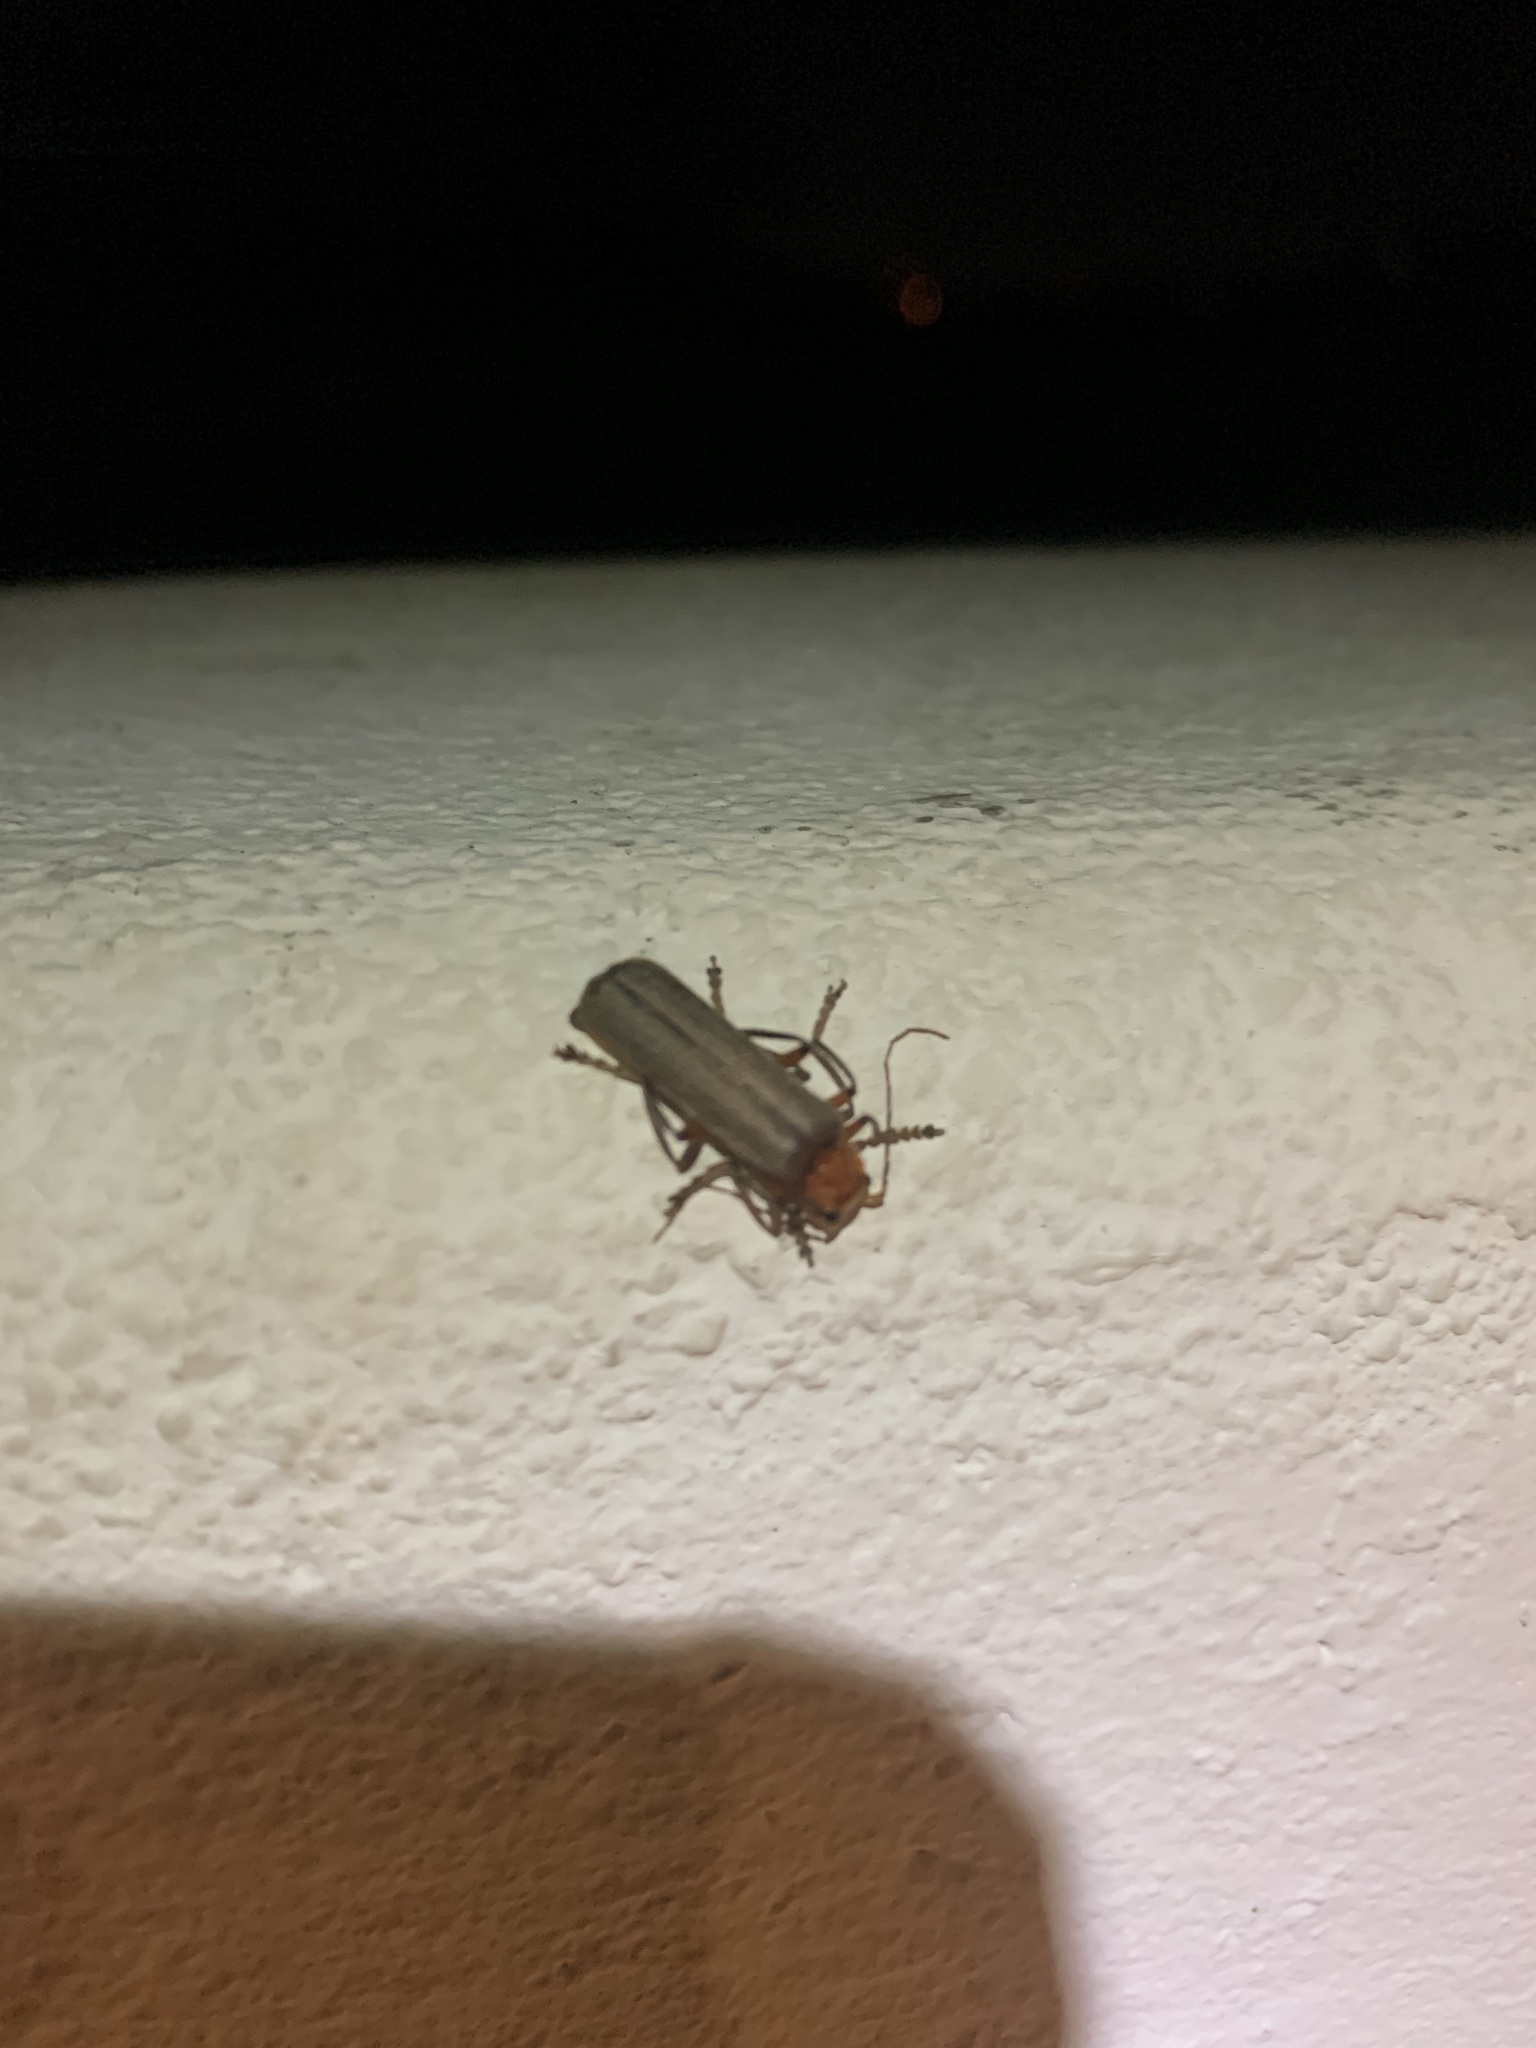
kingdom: Animalia
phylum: Arthropoda
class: Insecta
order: Coleoptera
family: Cantharidae
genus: Pacificanthia
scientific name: Pacificanthia consors
